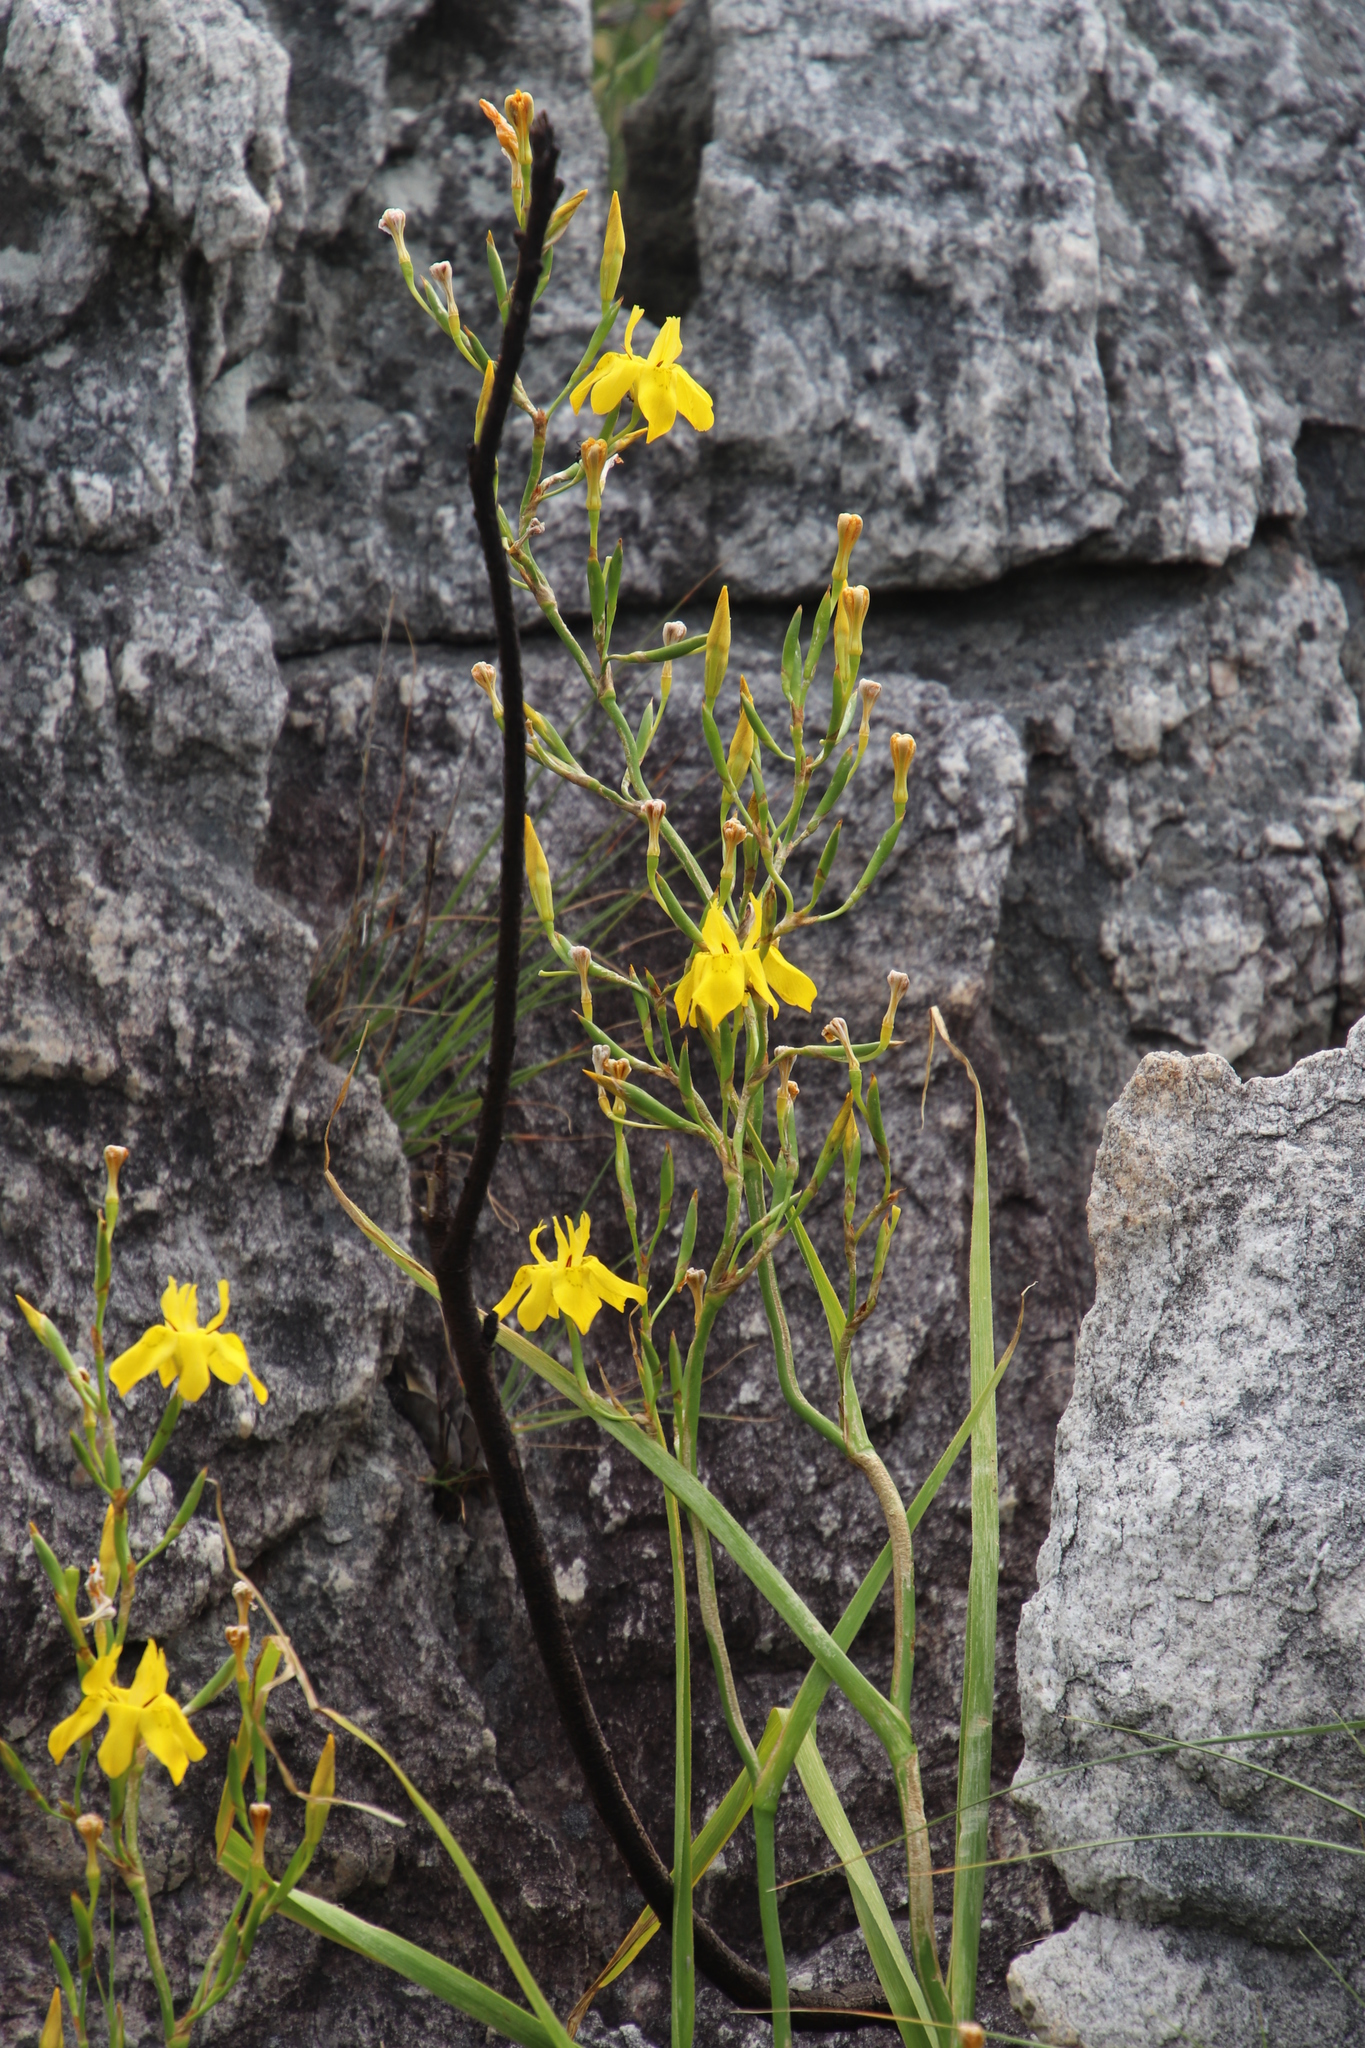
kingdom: Plantae
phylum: Tracheophyta
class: Liliopsida
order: Asparagales
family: Iridaceae
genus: Moraea
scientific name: Moraea ramosissima
